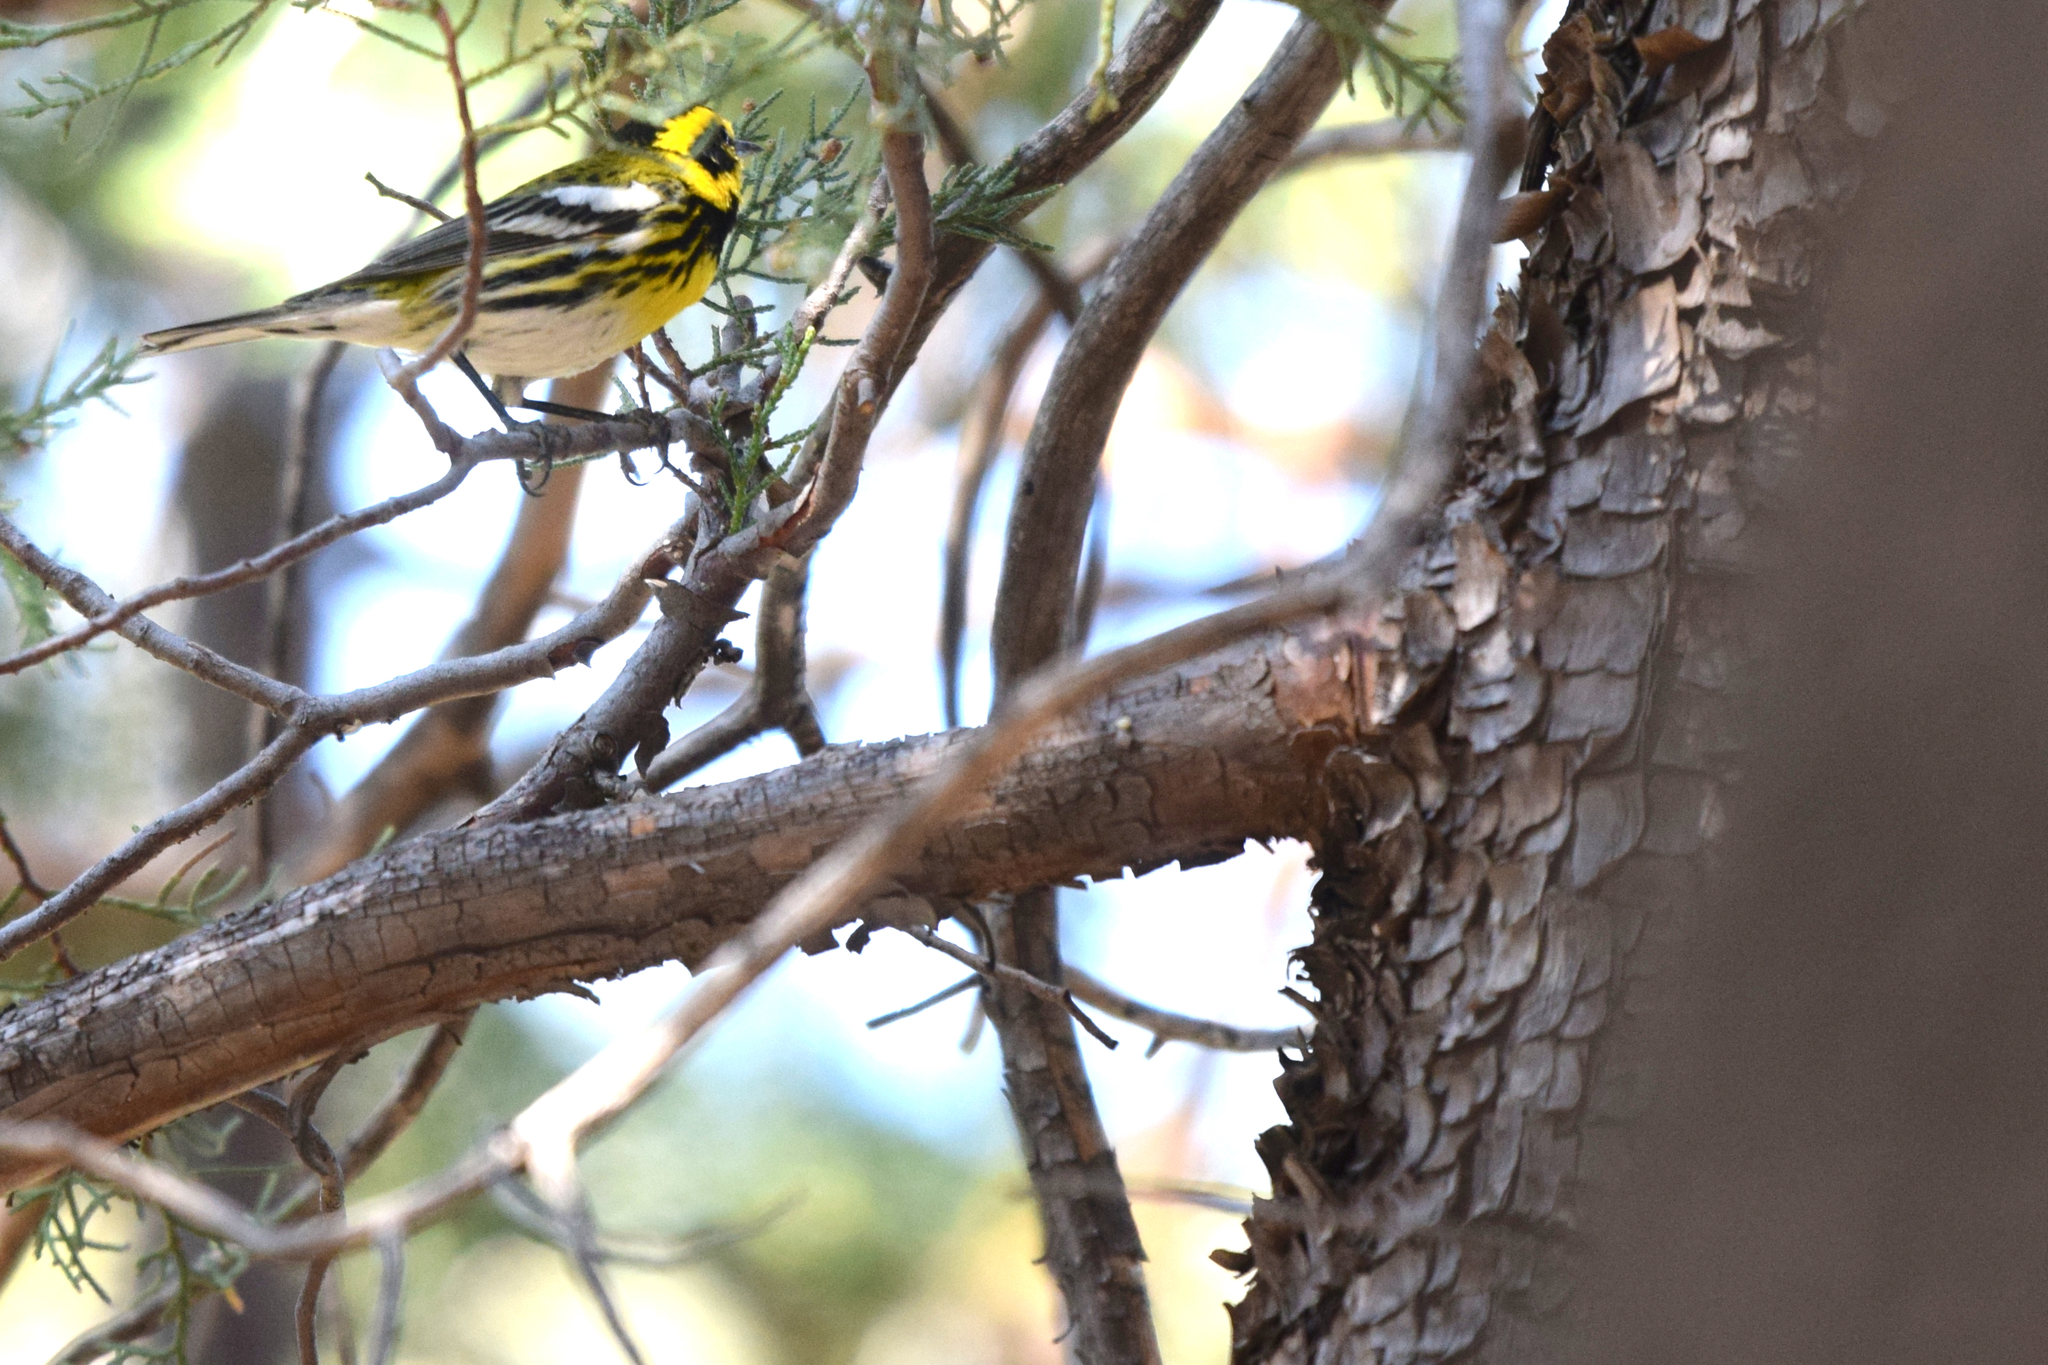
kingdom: Plantae
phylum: Tracheophyta
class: Pinopsida
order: Pinales
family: Cupressaceae
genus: Juniperus
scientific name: Juniperus deppeana
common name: Alligator juniper
